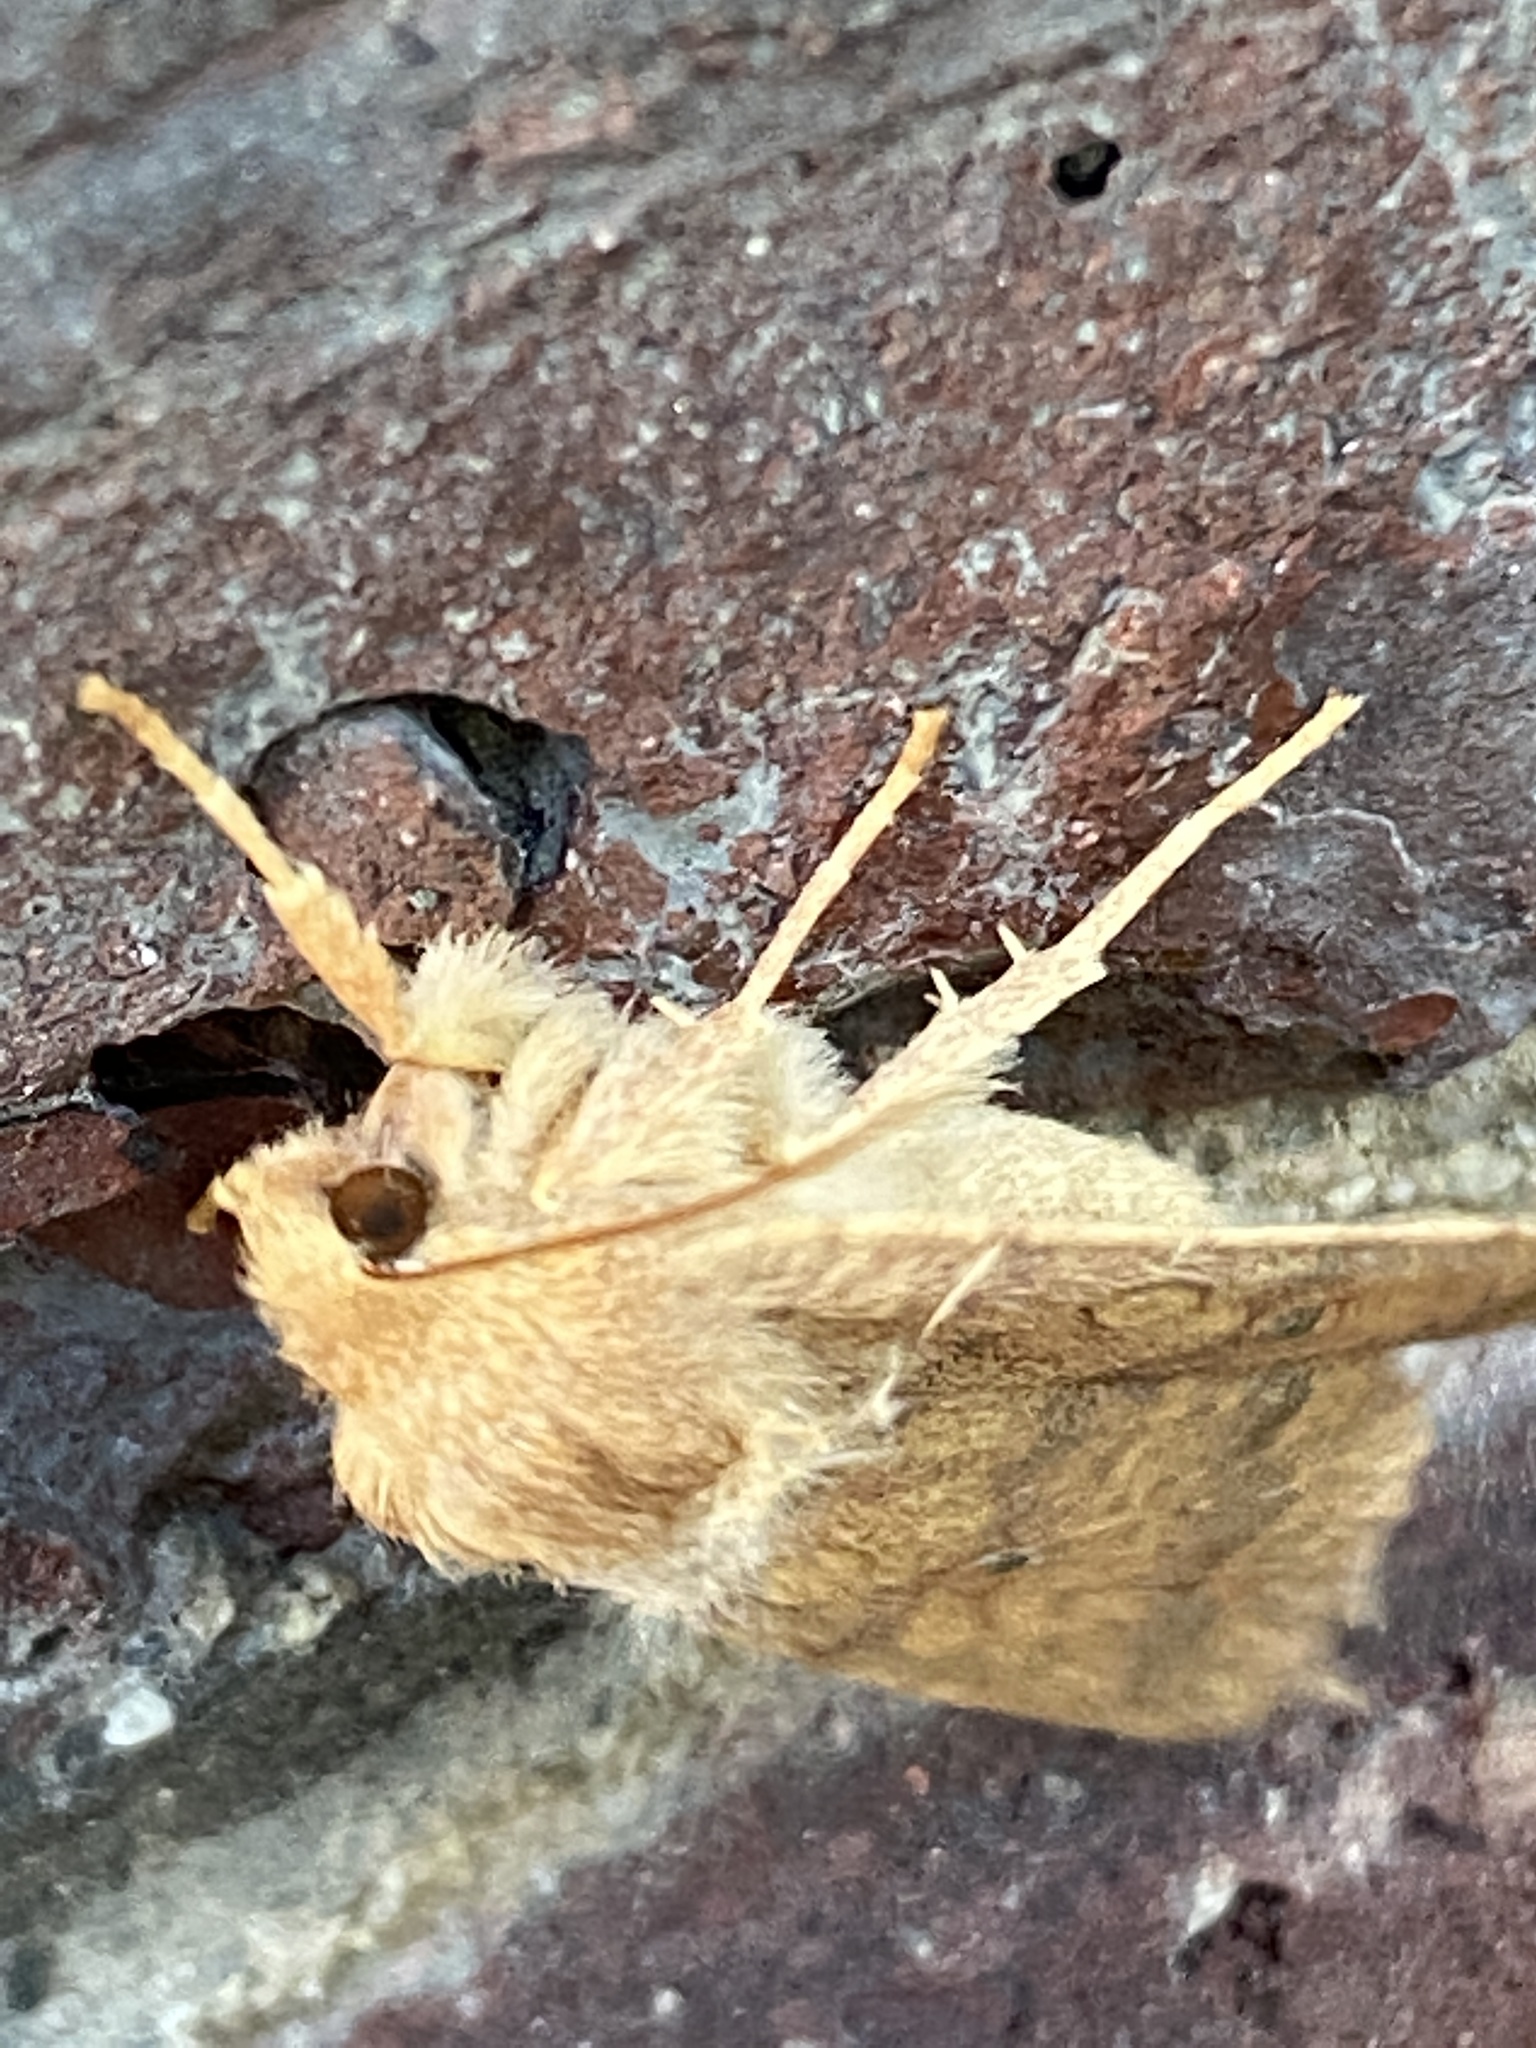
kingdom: Animalia
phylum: Arthropoda
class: Insecta
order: Lepidoptera
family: Noctuidae
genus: Agrochola
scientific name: Agrochola bicolorago
